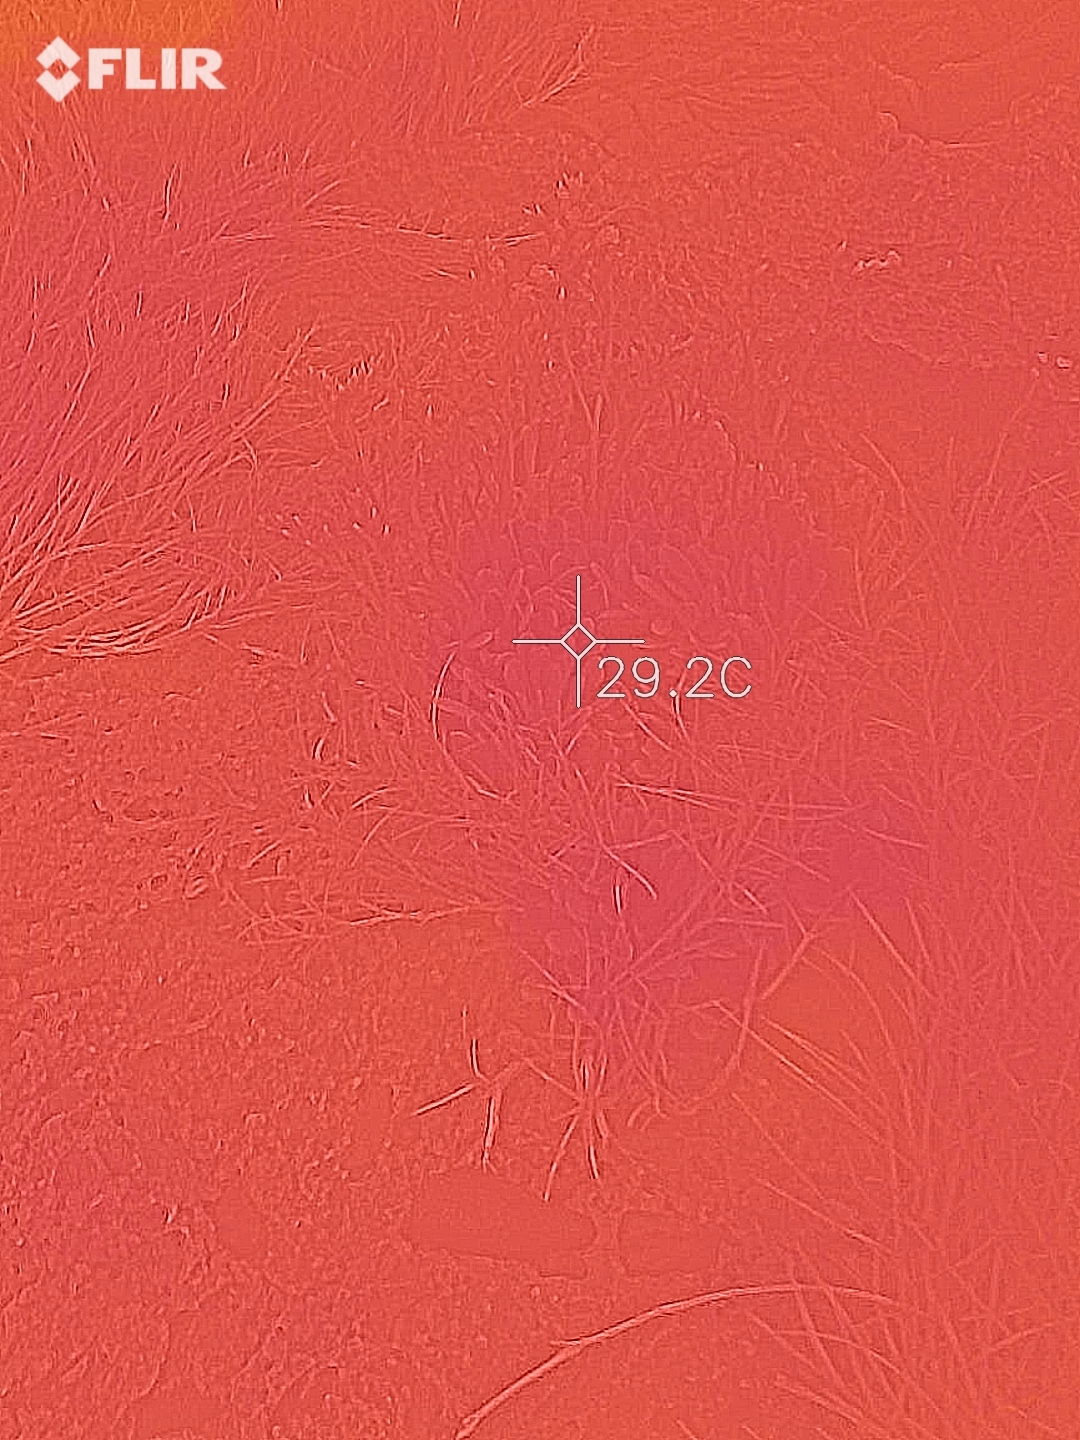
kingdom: Plantae
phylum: Tracheophyta
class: Magnoliopsida
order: Caryophyllales
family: Plumbaginaceae
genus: Limonium
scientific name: Limonium wrightii
